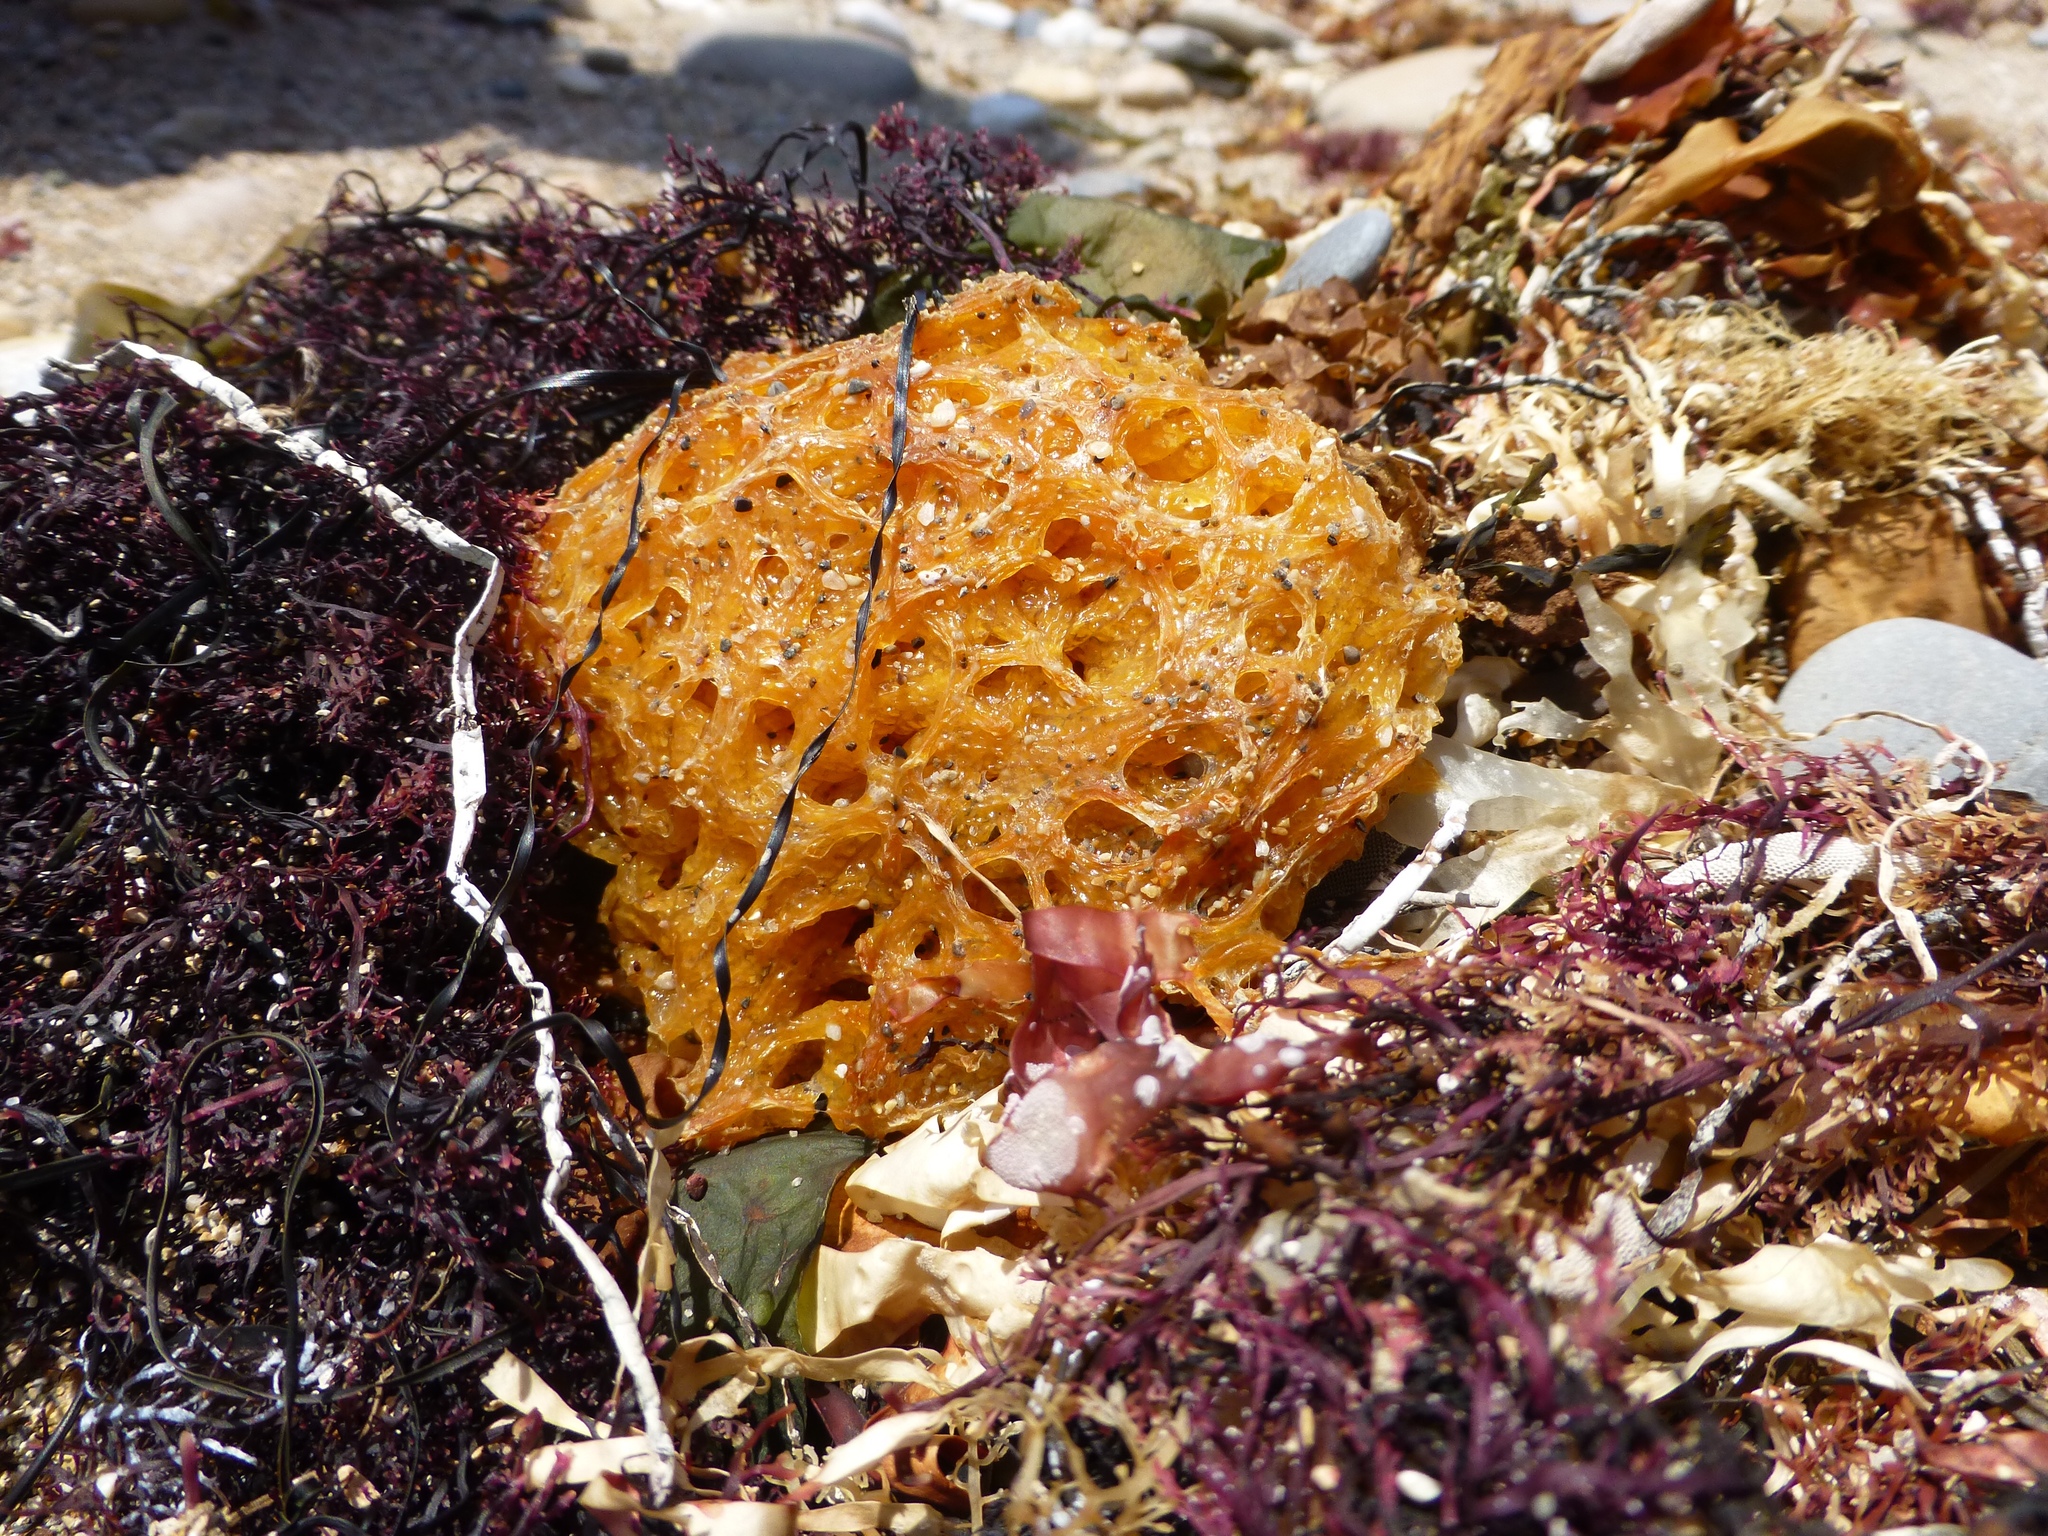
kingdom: Animalia
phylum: Mollusca
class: Gastropoda
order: Aplysiida
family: Aplysiidae
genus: Aplysia
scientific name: Aplysia
